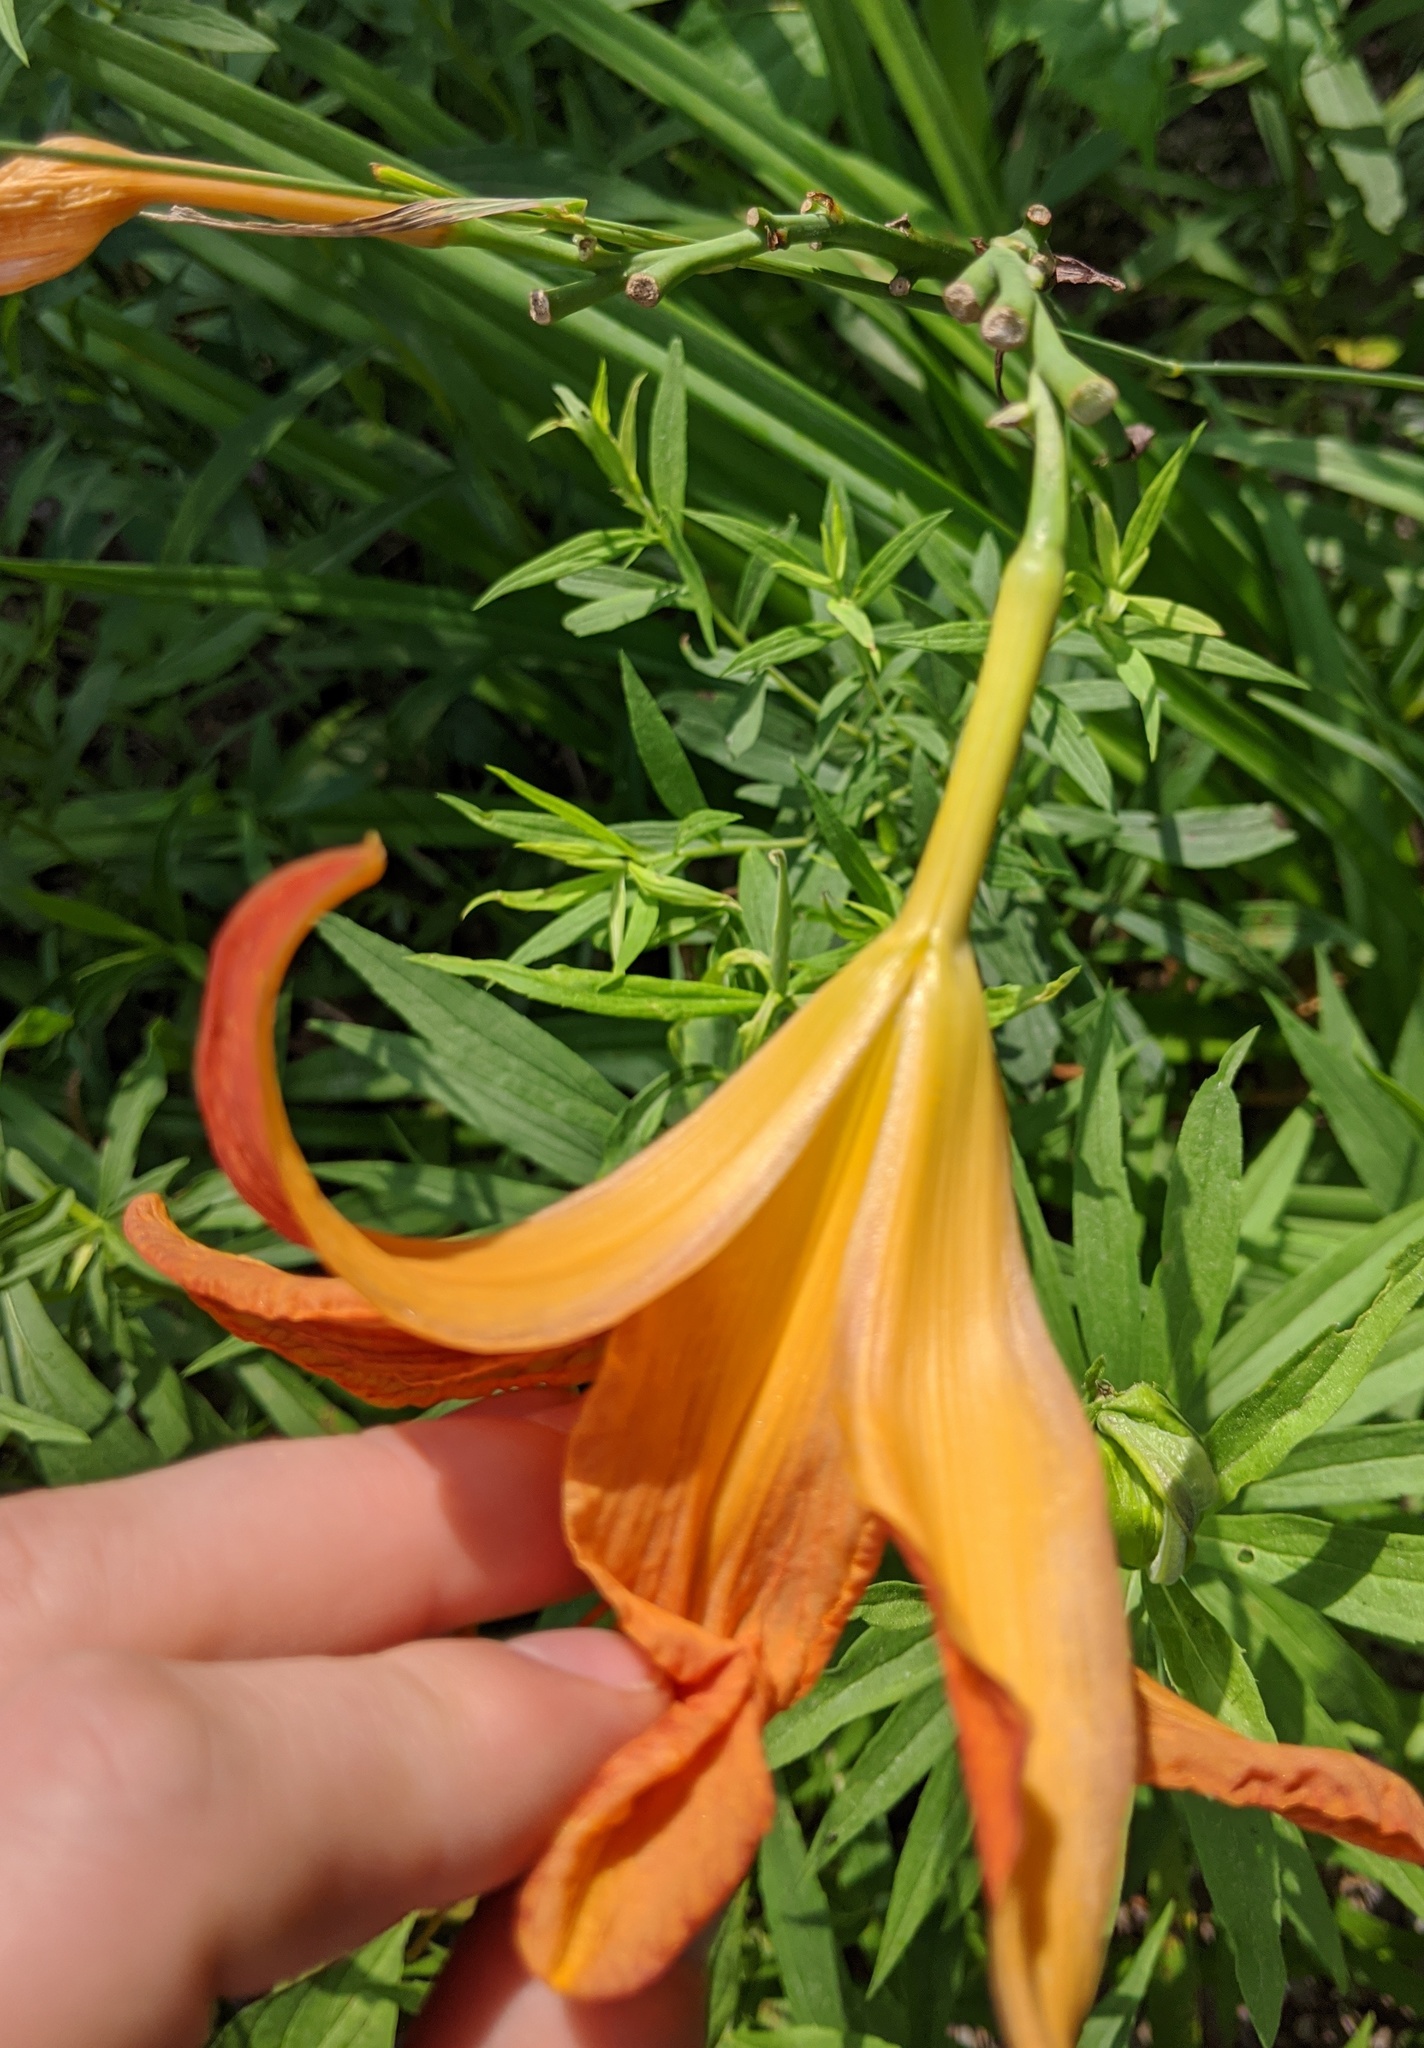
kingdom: Plantae
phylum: Tracheophyta
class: Liliopsida
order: Asparagales
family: Asphodelaceae
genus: Hemerocallis
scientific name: Hemerocallis fulva
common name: Orange day-lily
